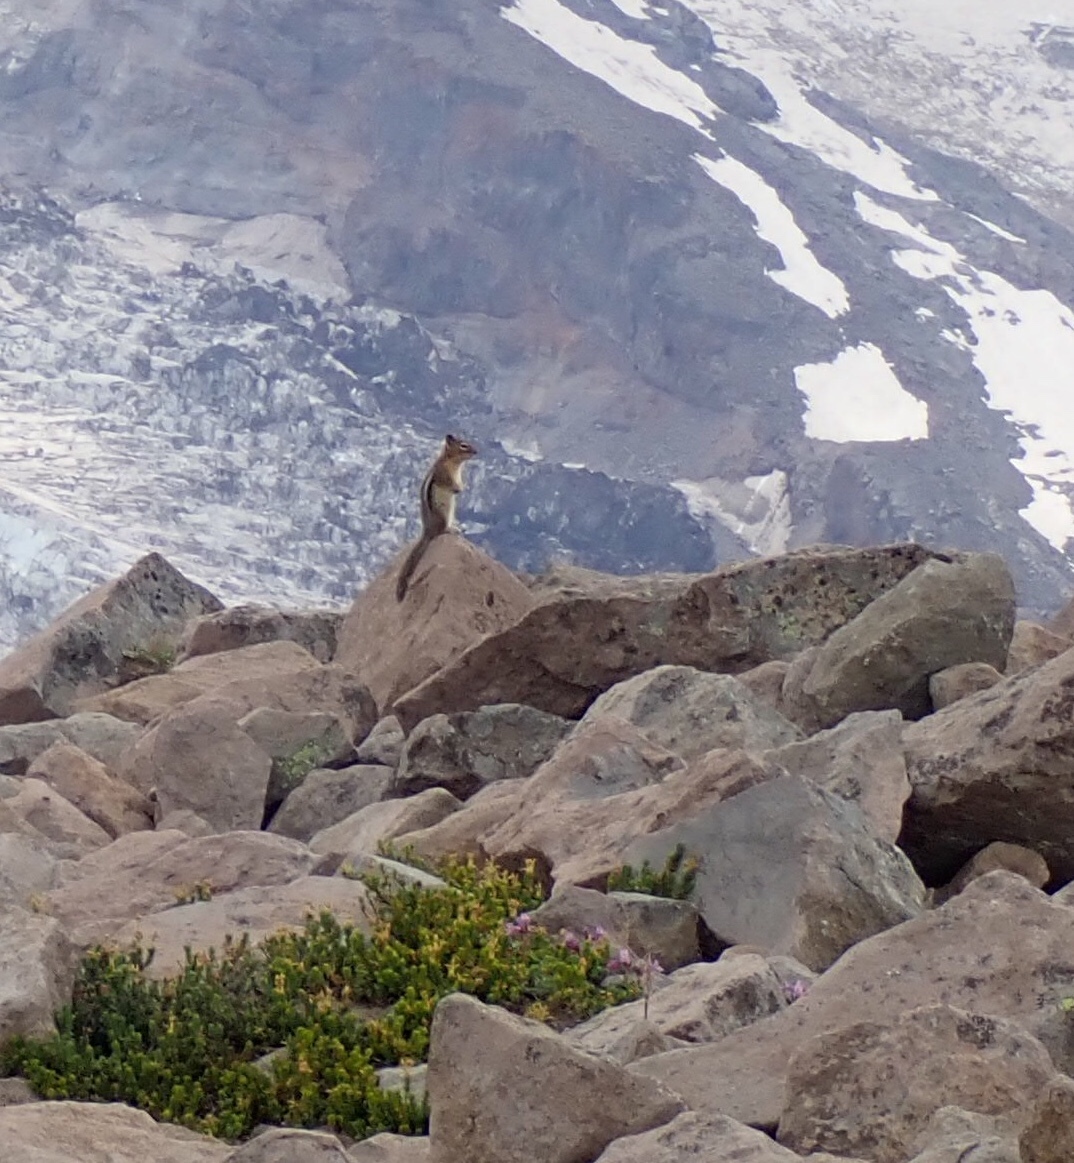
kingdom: Animalia
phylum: Chordata
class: Mammalia
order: Rodentia
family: Sciuridae
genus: Callospermophilus
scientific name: Callospermophilus saturatus
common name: Cascade golden-mantled ground squirrel
